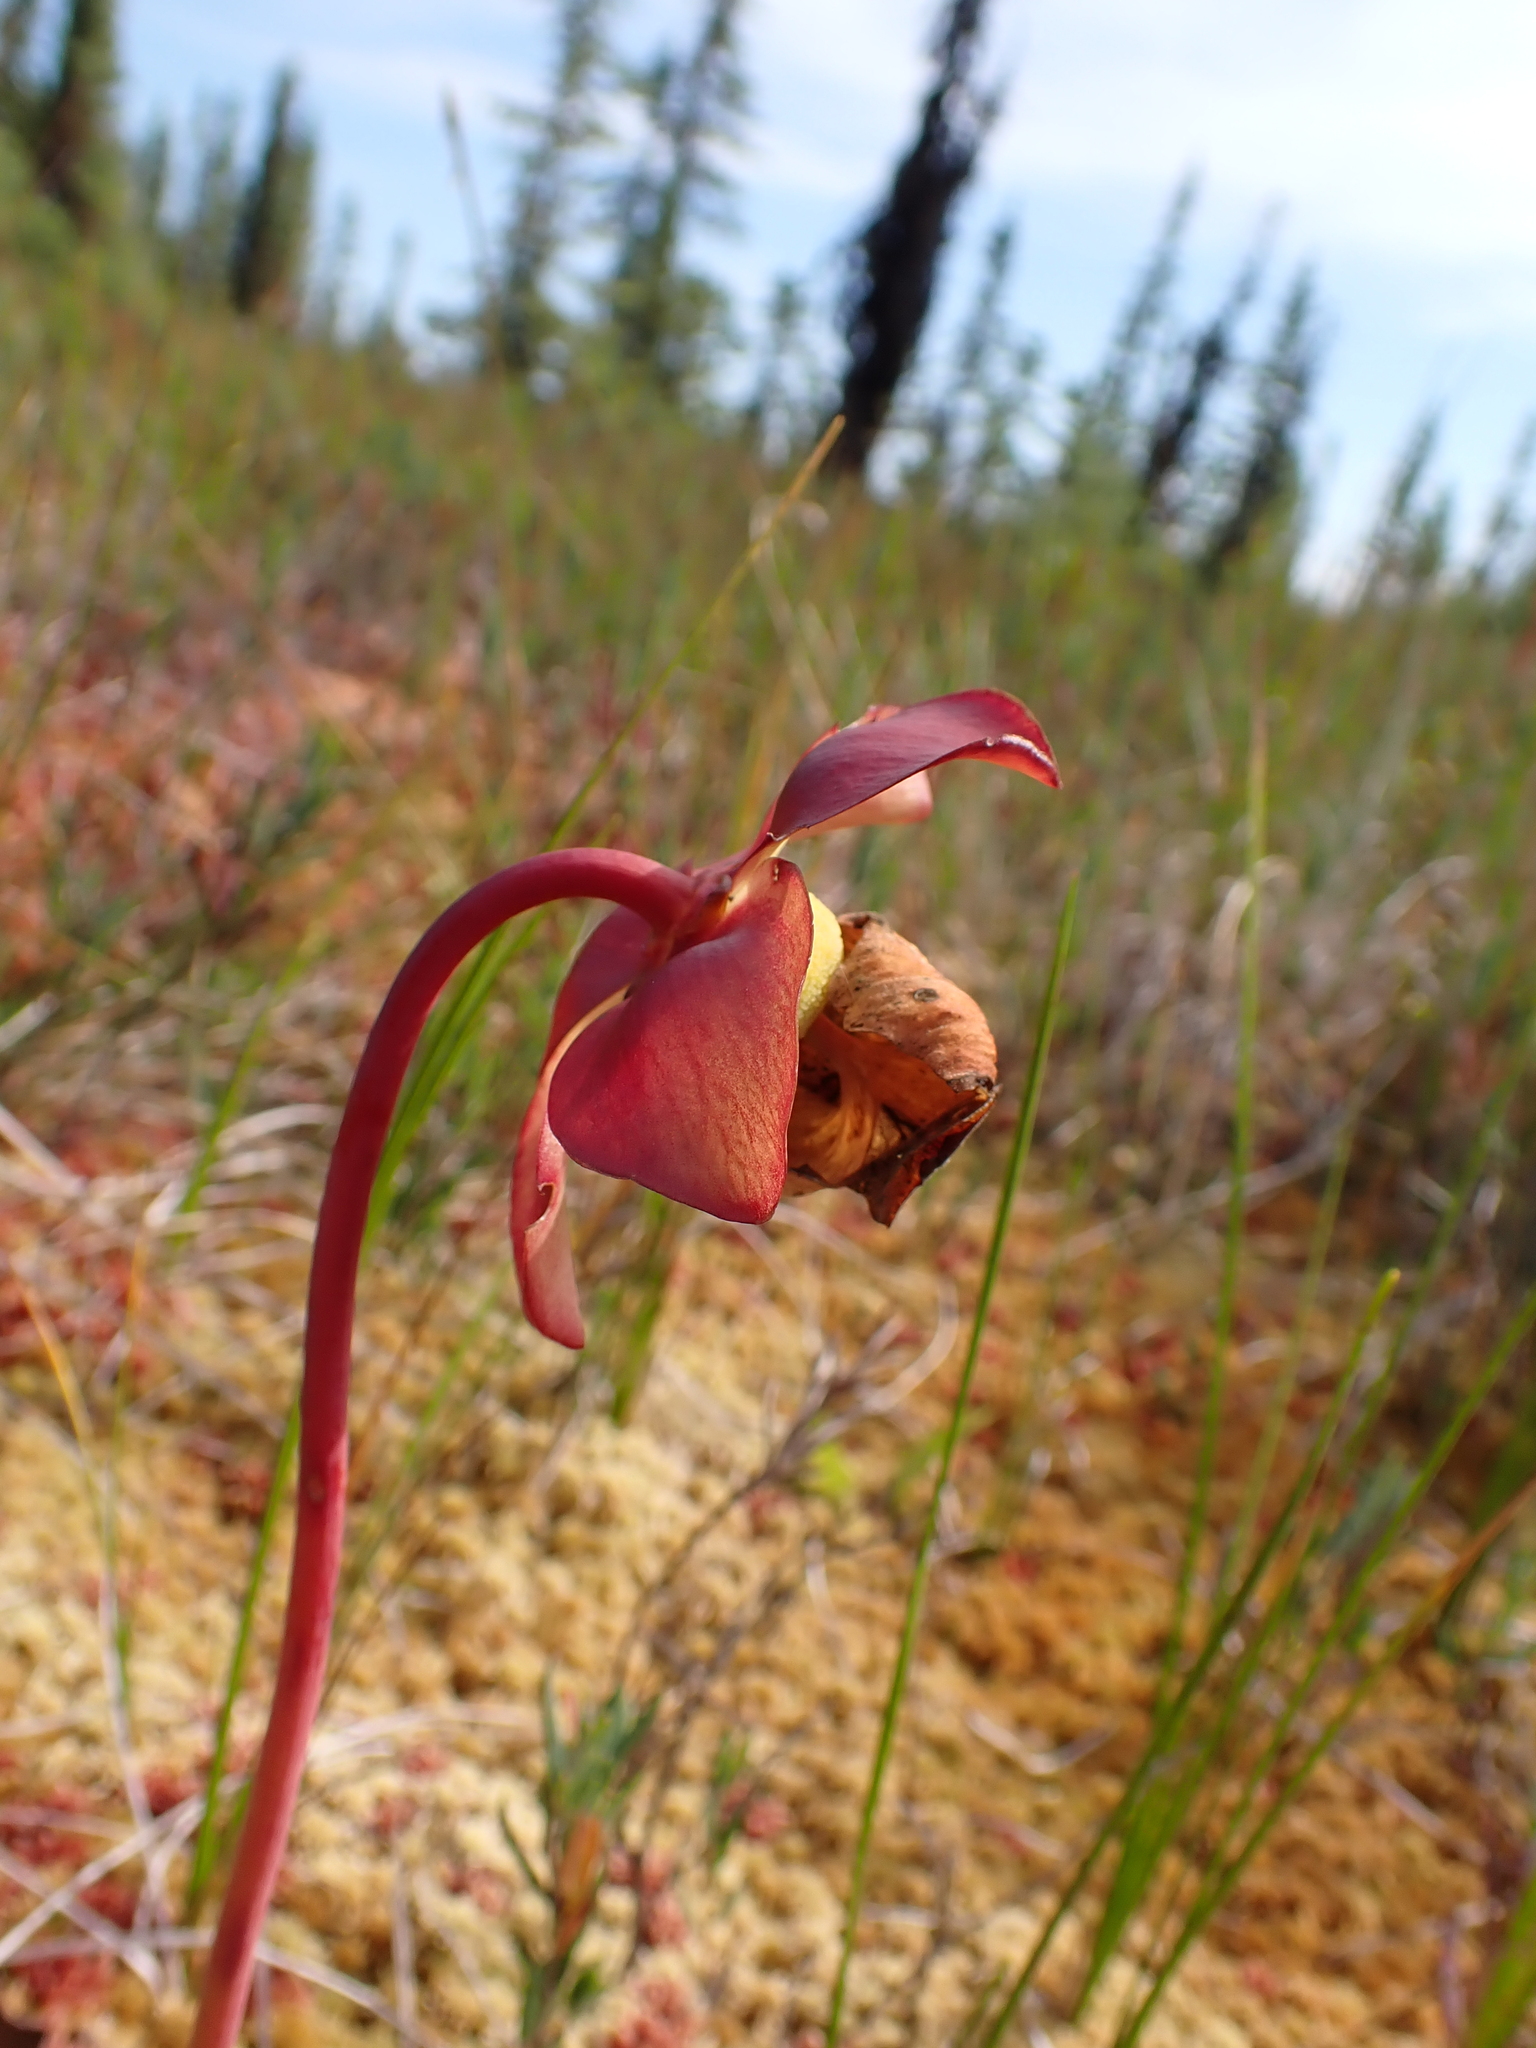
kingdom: Plantae
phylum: Tracheophyta
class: Magnoliopsida
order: Ericales
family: Sarraceniaceae
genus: Sarracenia
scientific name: Sarracenia purpurea
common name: Pitcherplant
